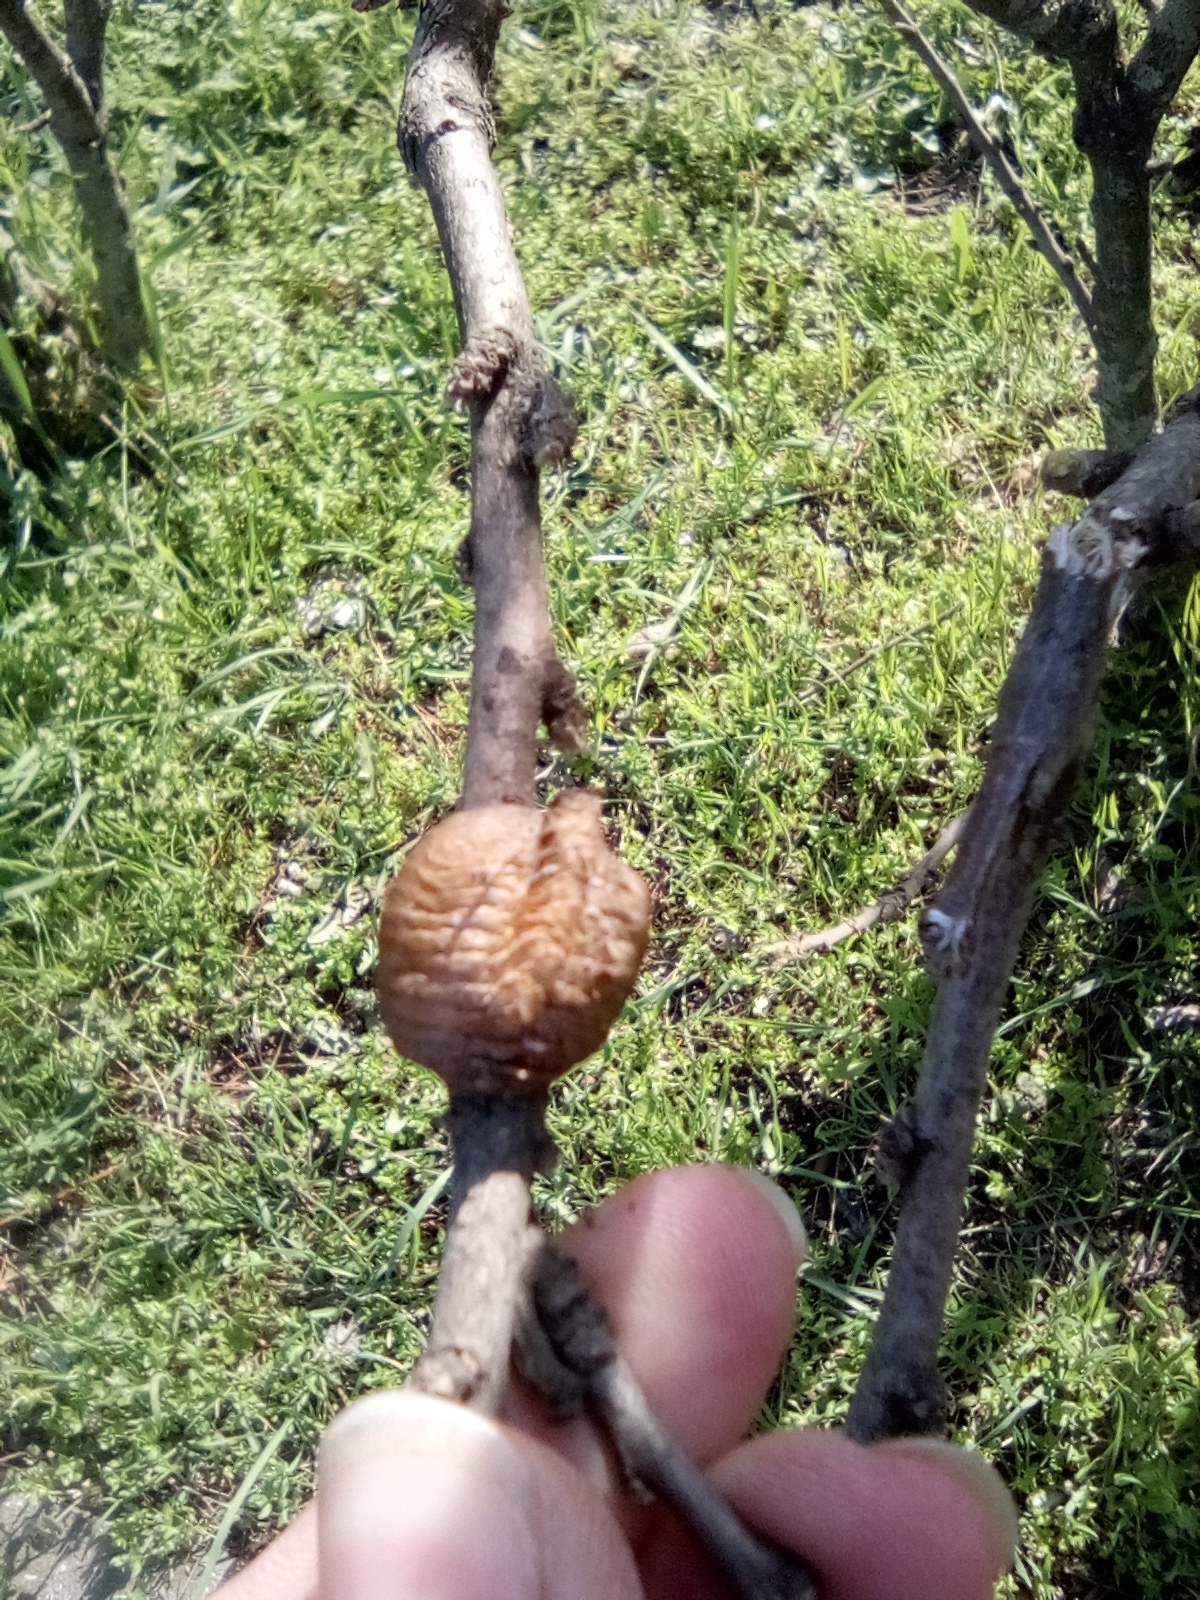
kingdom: Animalia
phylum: Arthropoda
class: Insecta
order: Mantodea
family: Mantidae
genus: Hierodula
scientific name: Hierodula transcaucasica
